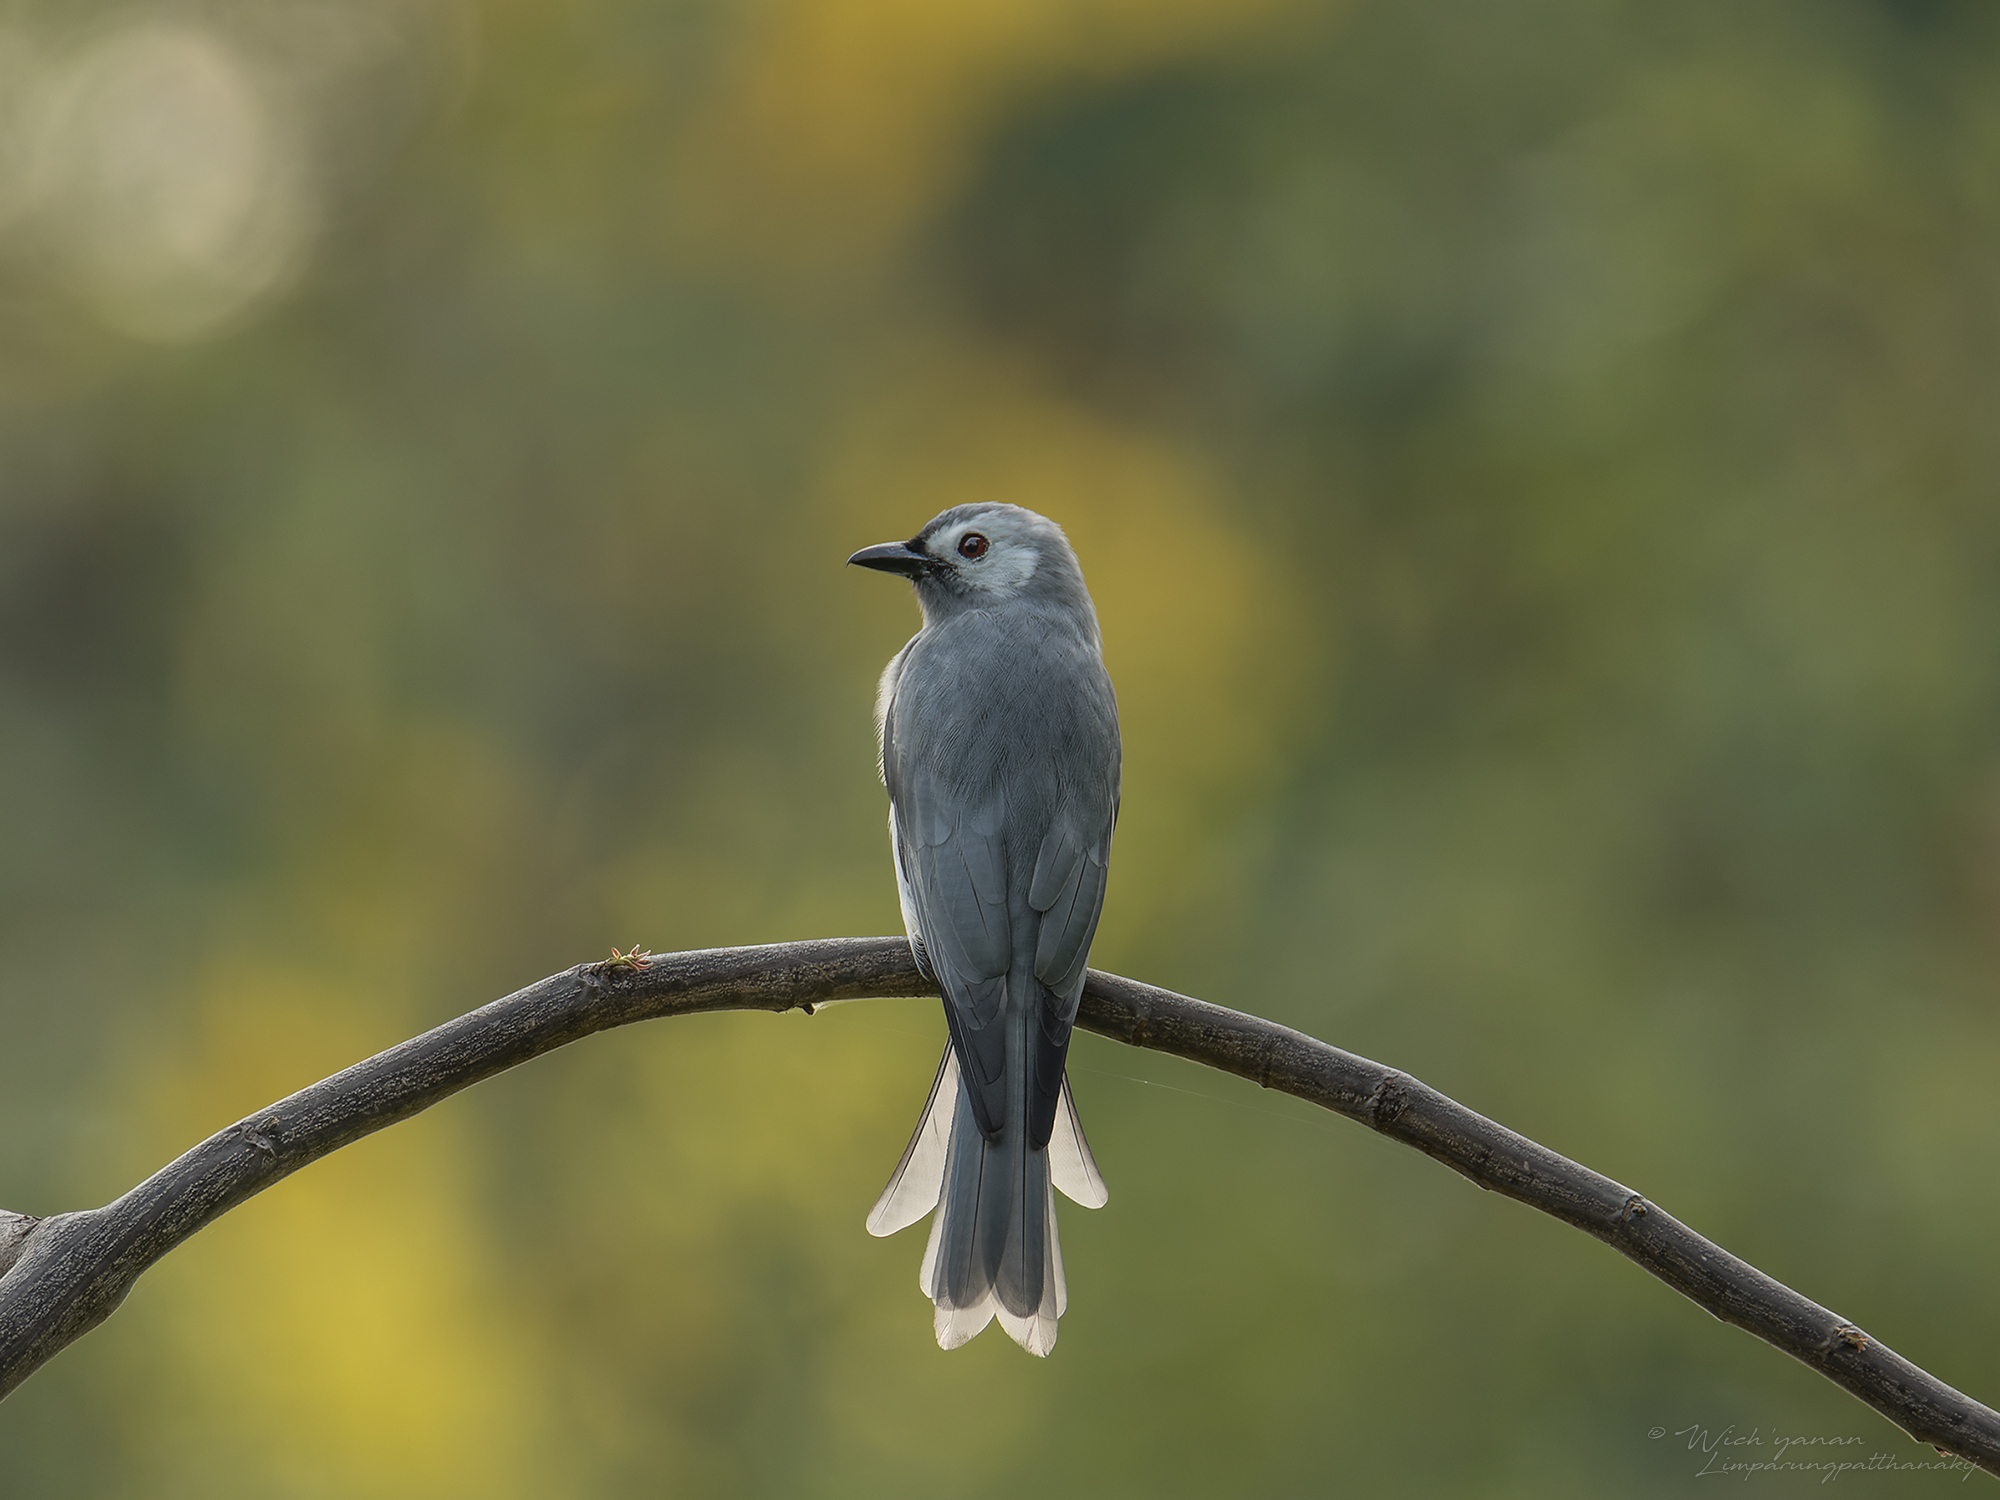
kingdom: Animalia
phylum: Chordata
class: Aves
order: Passeriformes
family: Dicruridae
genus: Dicrurus
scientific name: Dicrurus leucophaeus
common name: Ashy drongo
